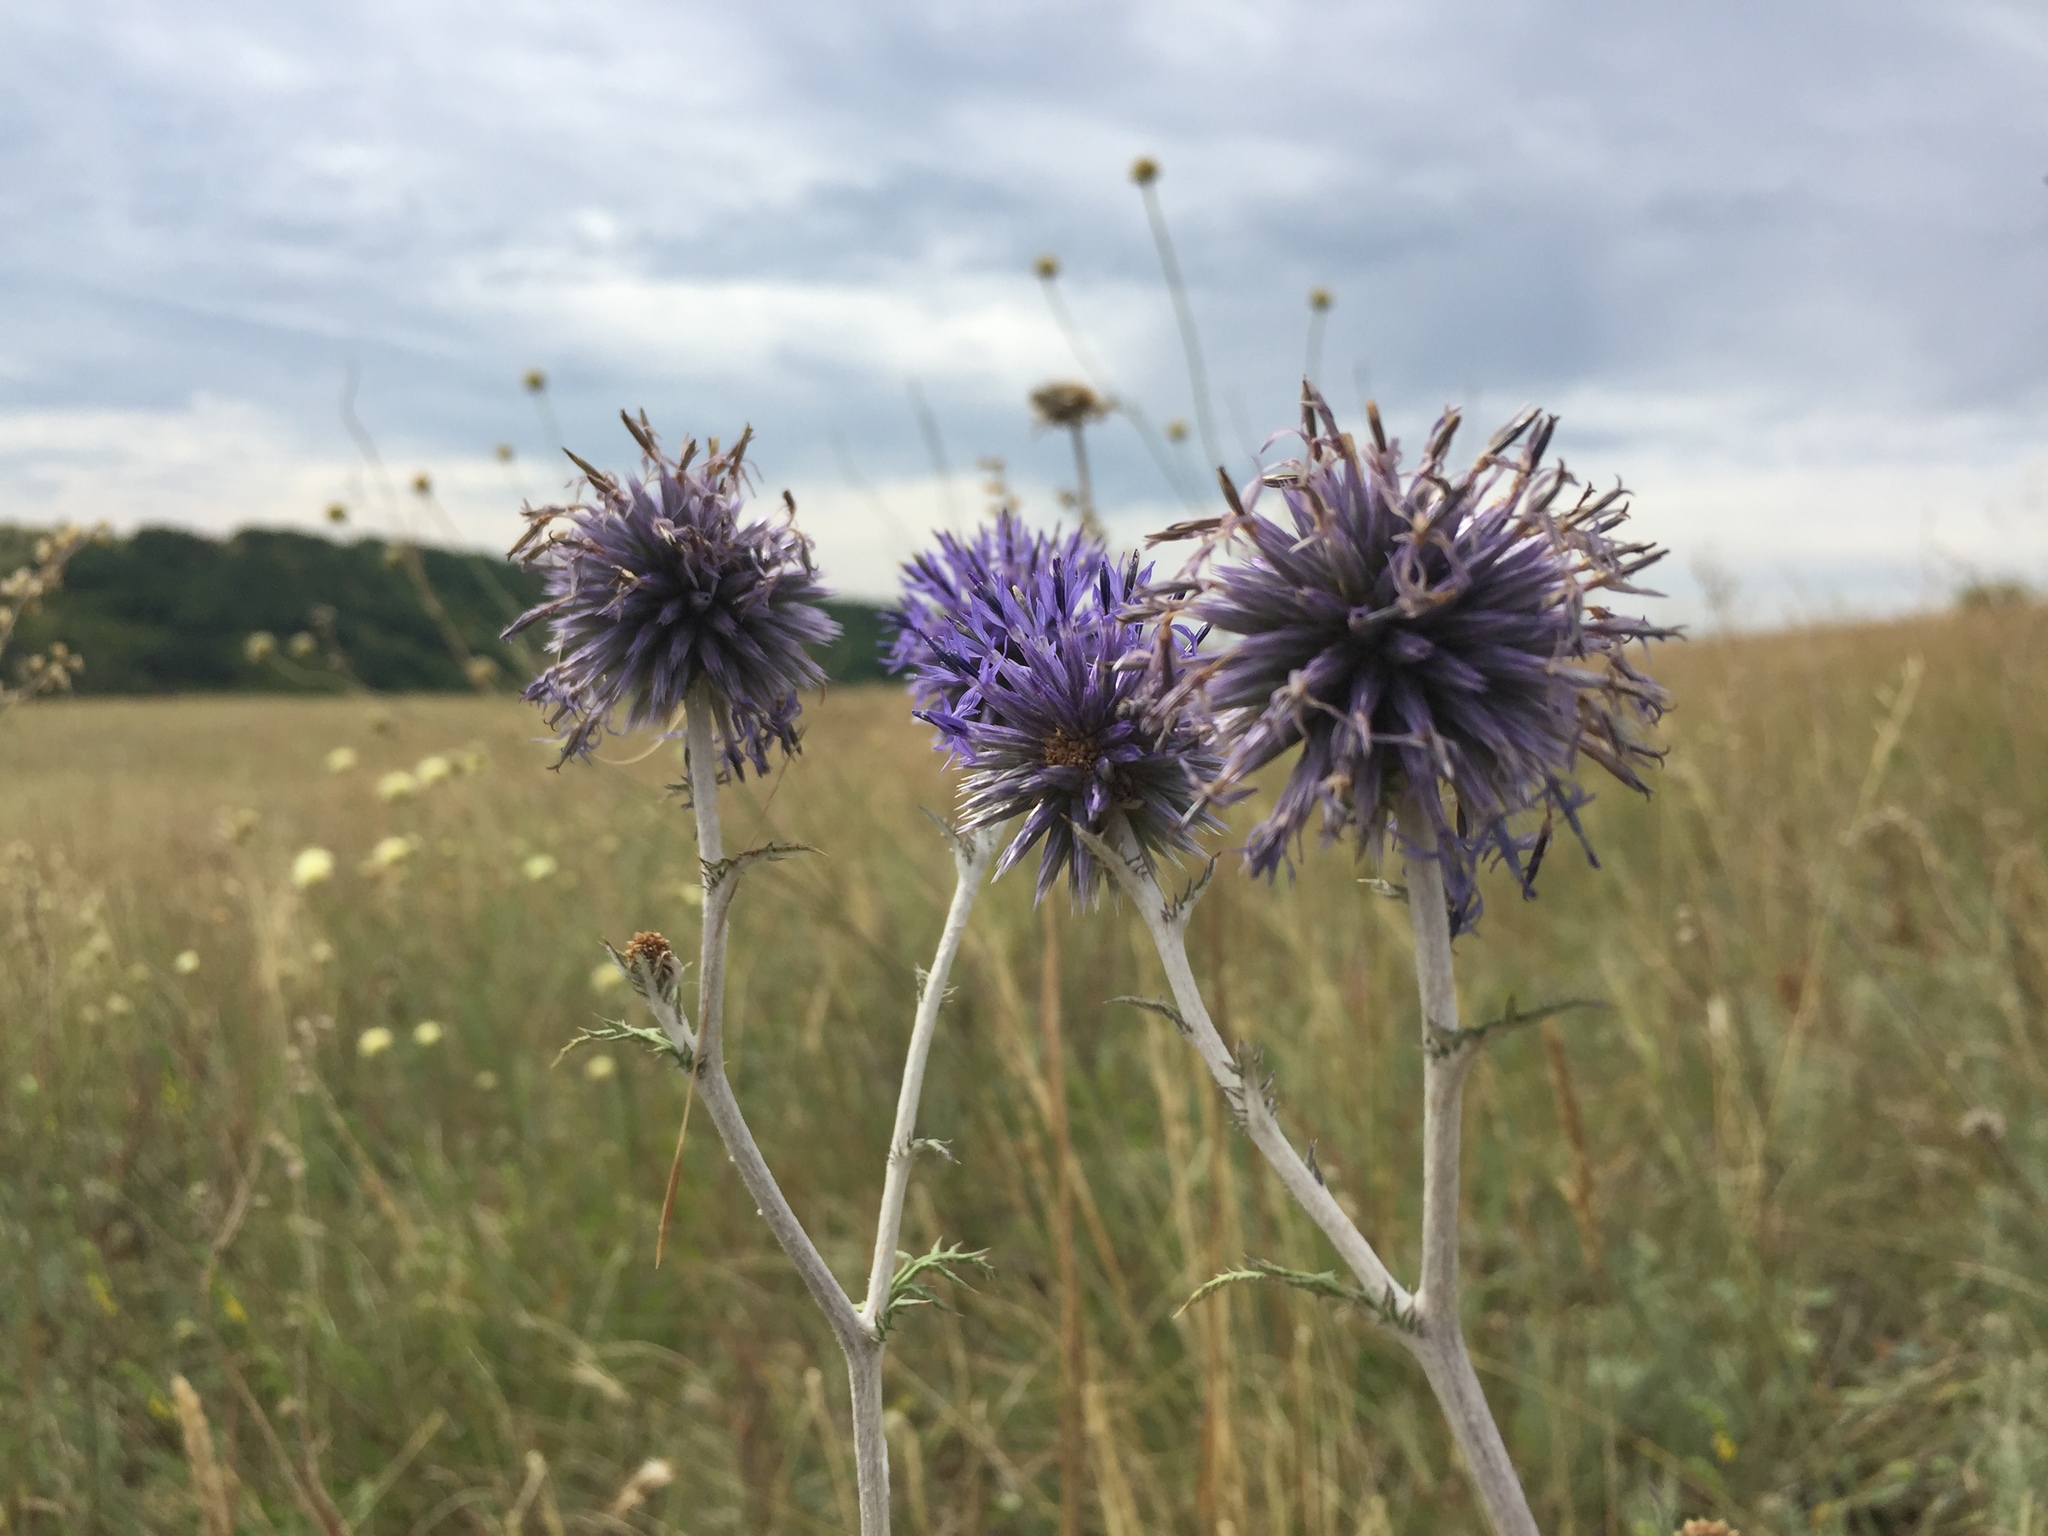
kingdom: Plantae
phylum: Tracheophyta
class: Magnoliopsida
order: Asterales
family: Asteraceae
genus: Echinops
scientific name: Echinops ritro
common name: Globe thistle
